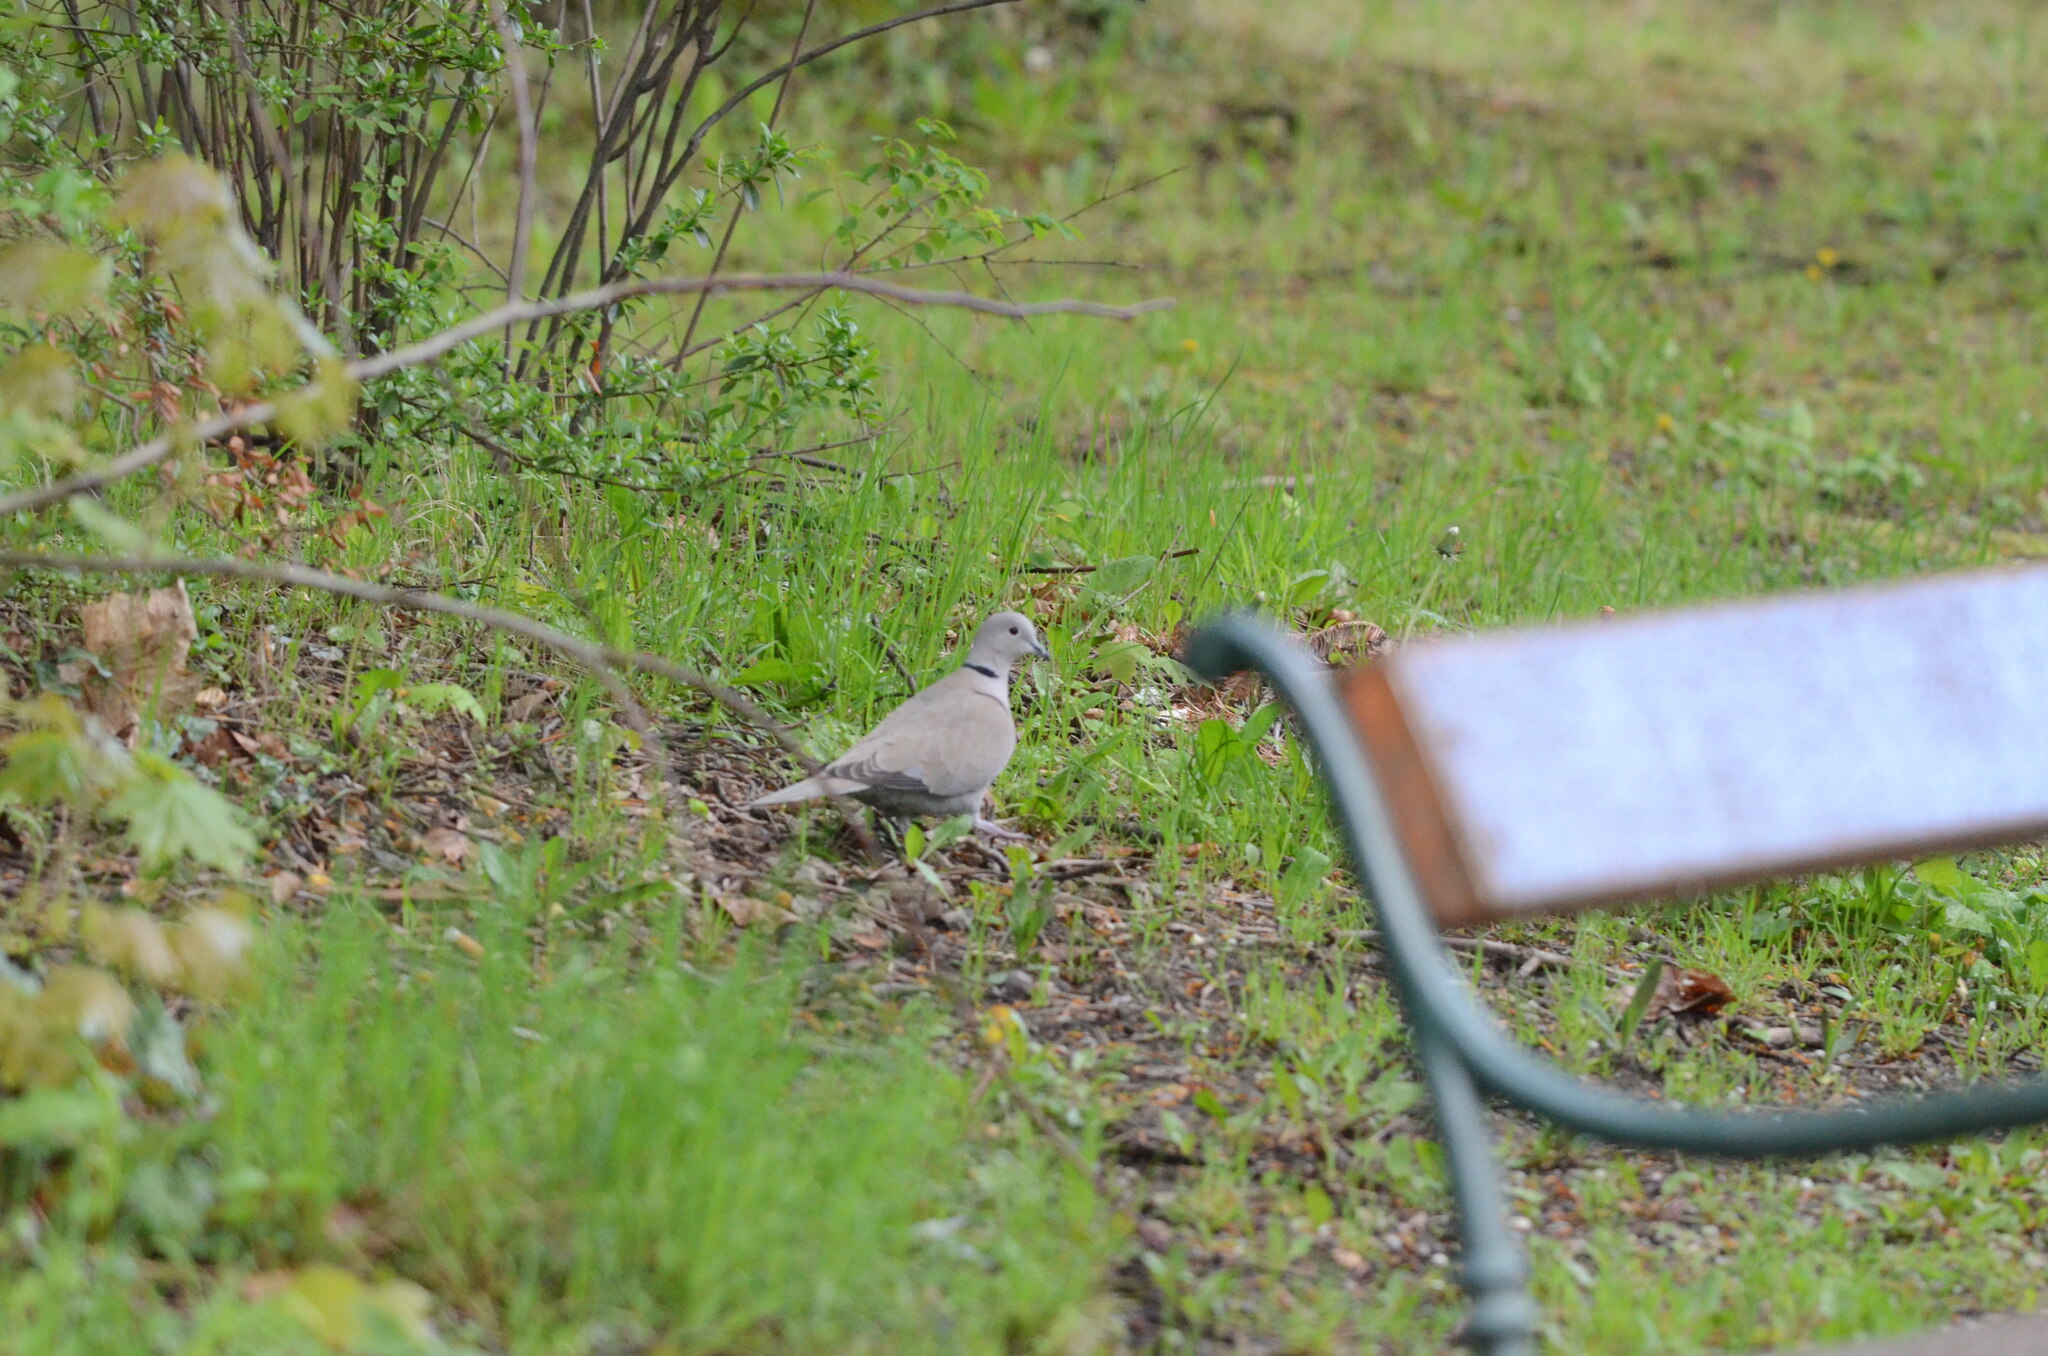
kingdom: Animalia
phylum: Chordata
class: Aves
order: Columbiformes
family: Columbidae
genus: Streptopelia
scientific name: Streptopelia decaocto
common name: Eurasian collared dove
